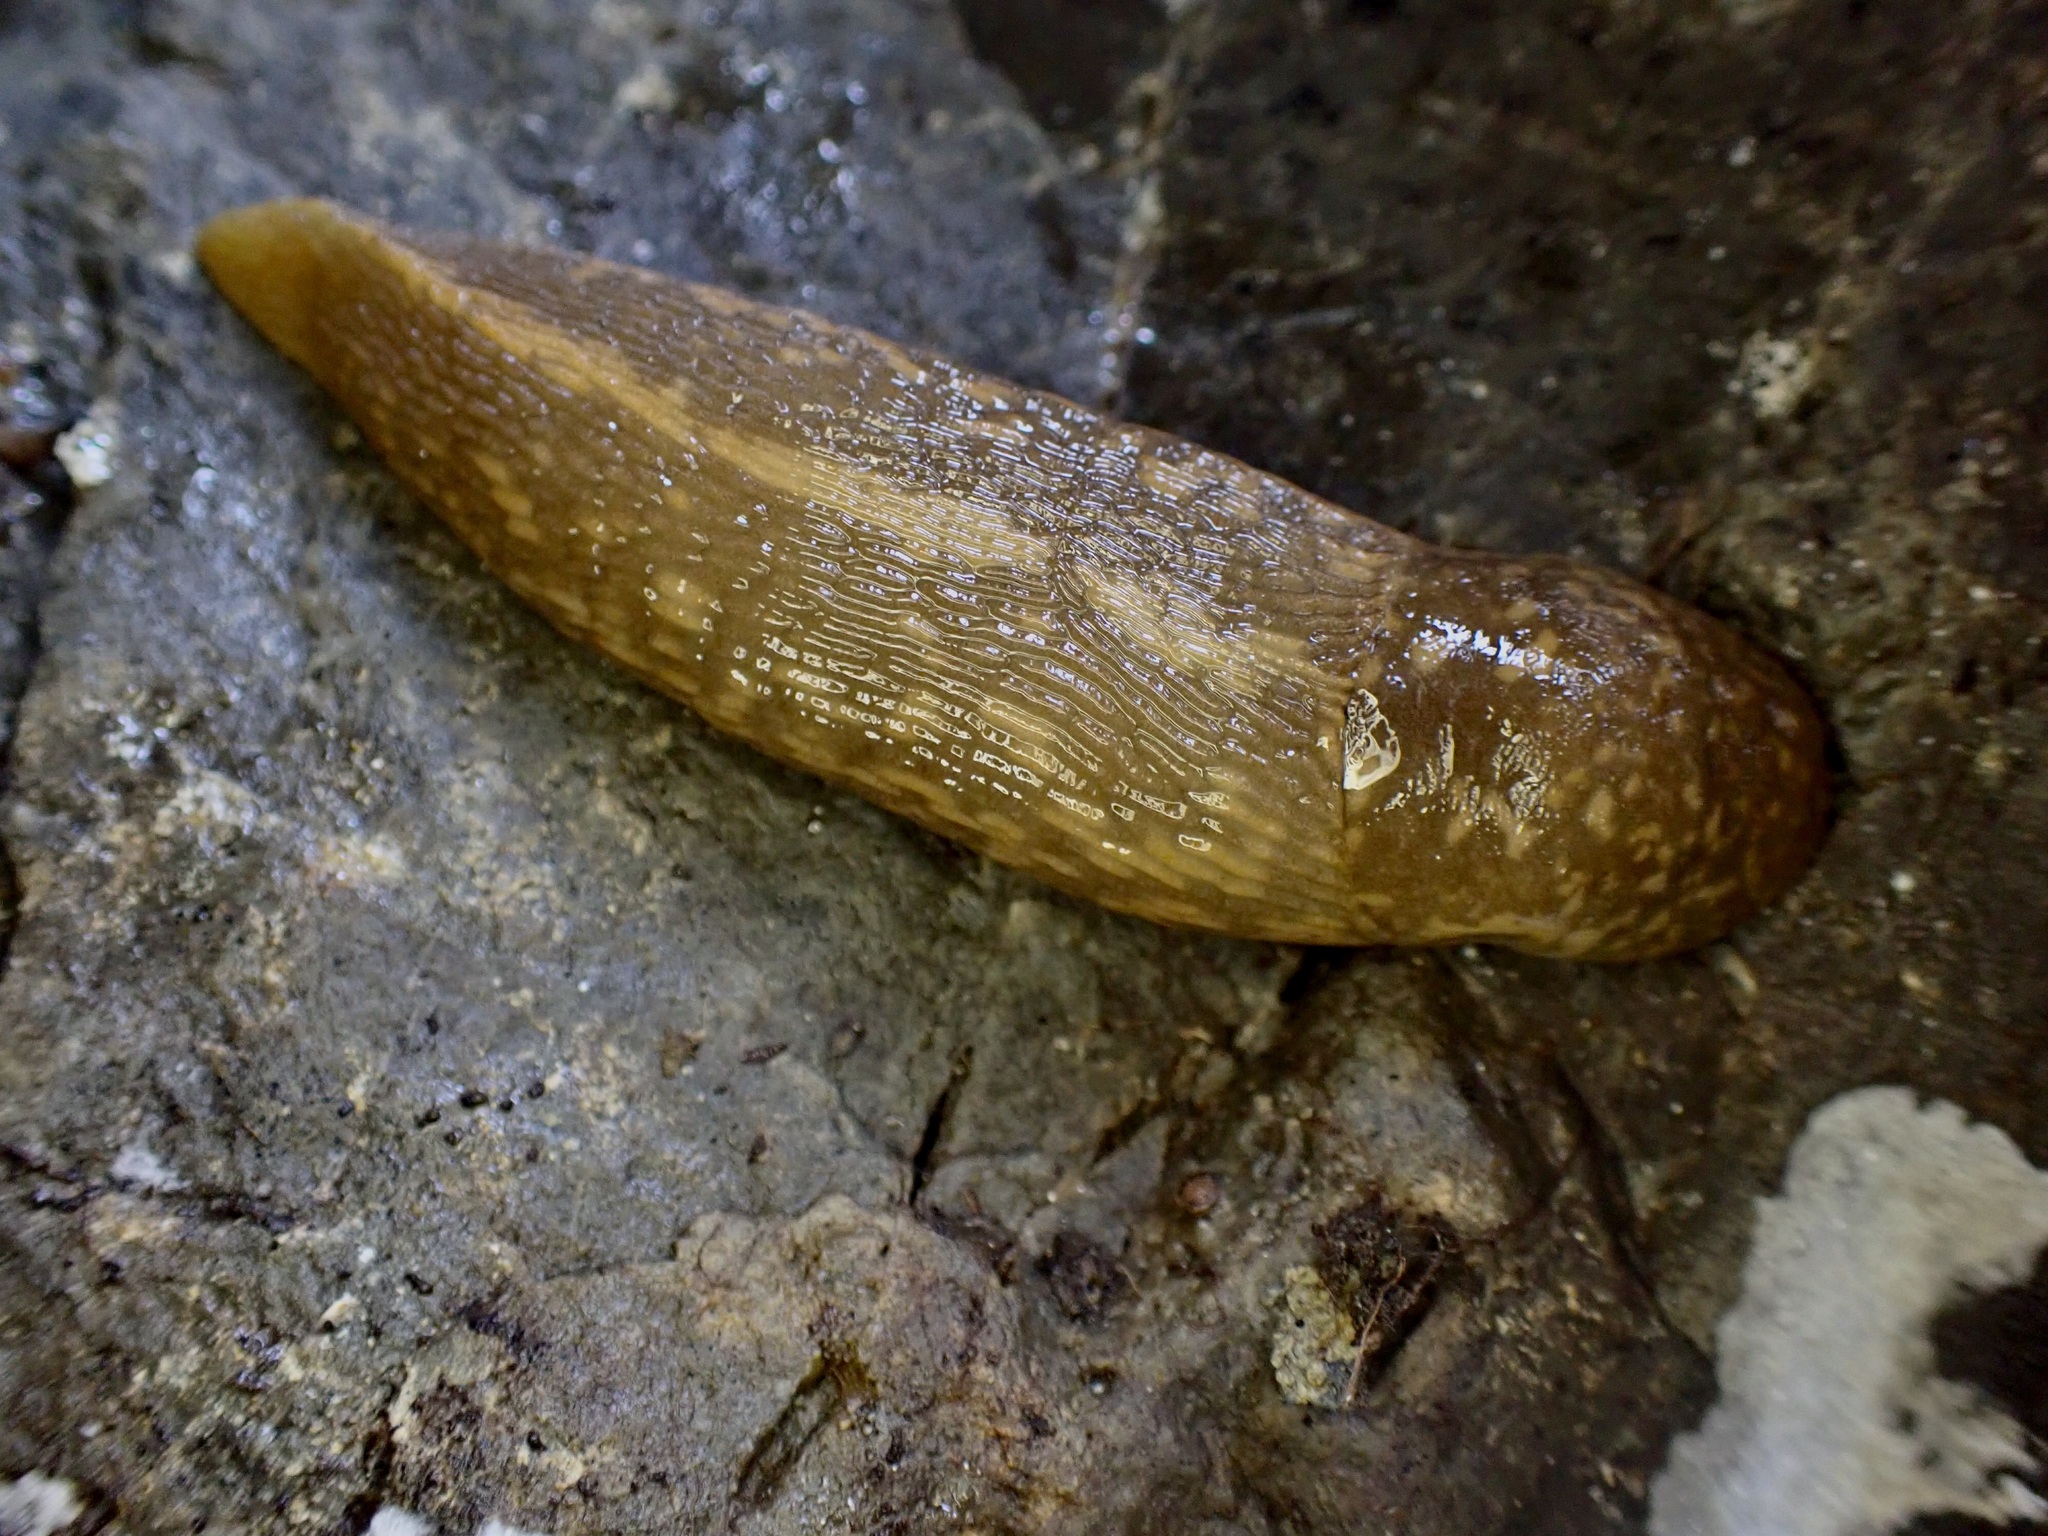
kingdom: Animalia
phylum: Mollusca
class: Gastropoda
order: Stylommatophora
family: Limacidae
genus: Limacus
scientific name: Limacus flavus
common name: Yellow gardenslug
